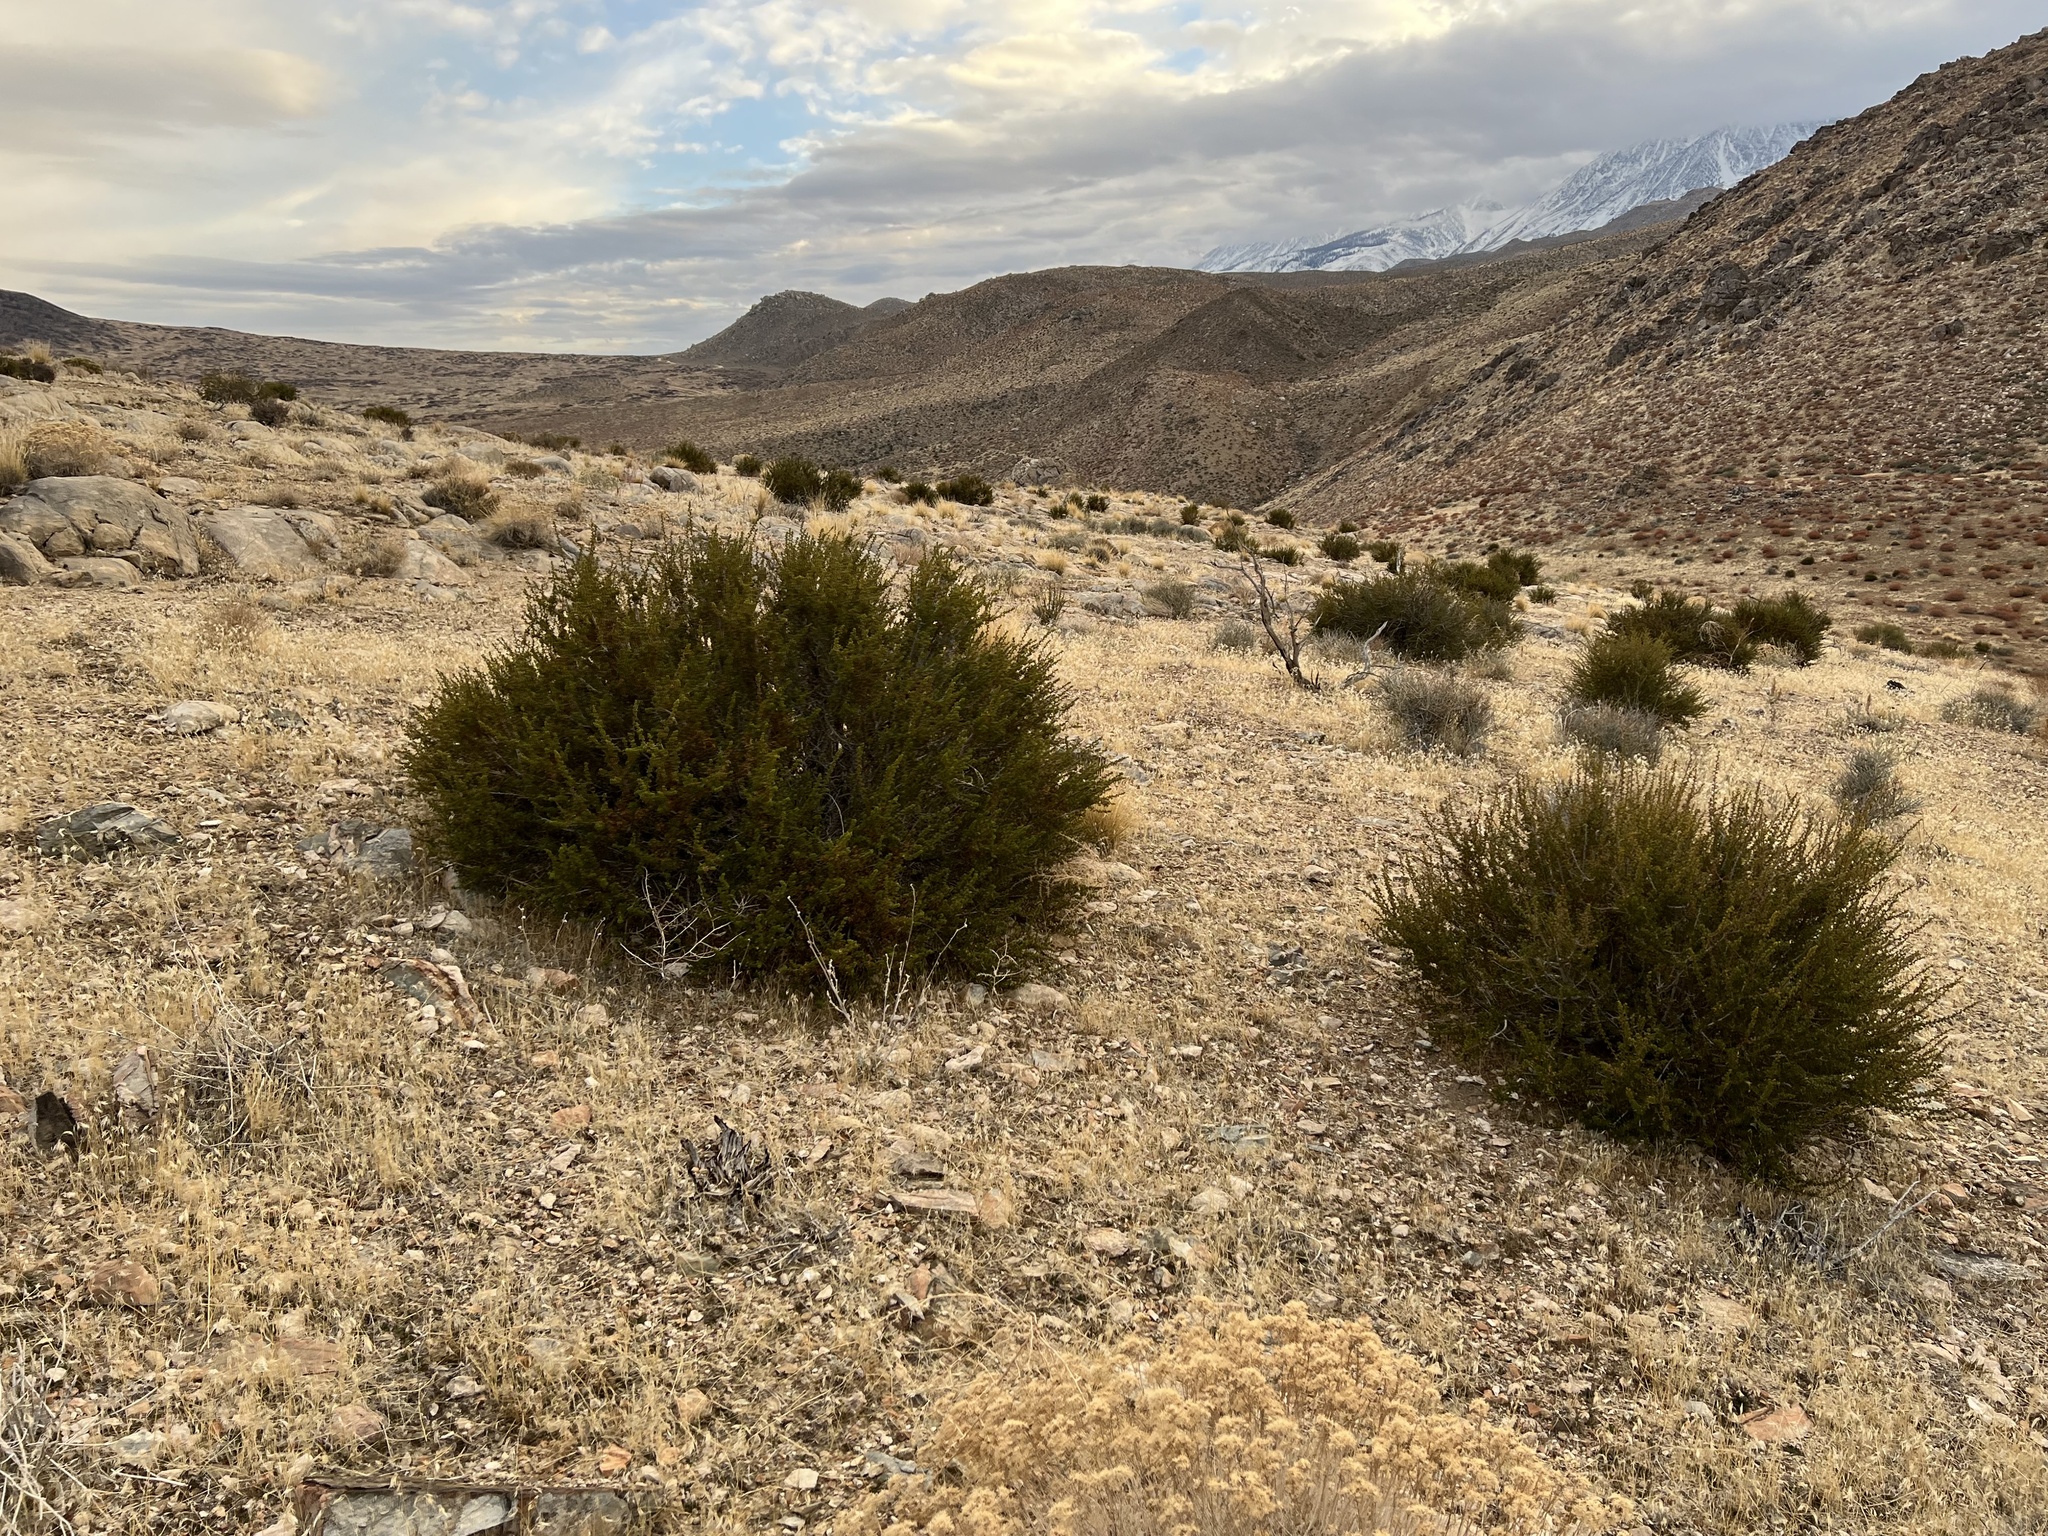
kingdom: Plantae
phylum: Tracheophyta
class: Magnoliopsida
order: Rosales
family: Rosaceae
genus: Purshia
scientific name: Purshia glandulosa
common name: Desert bitterbrush
